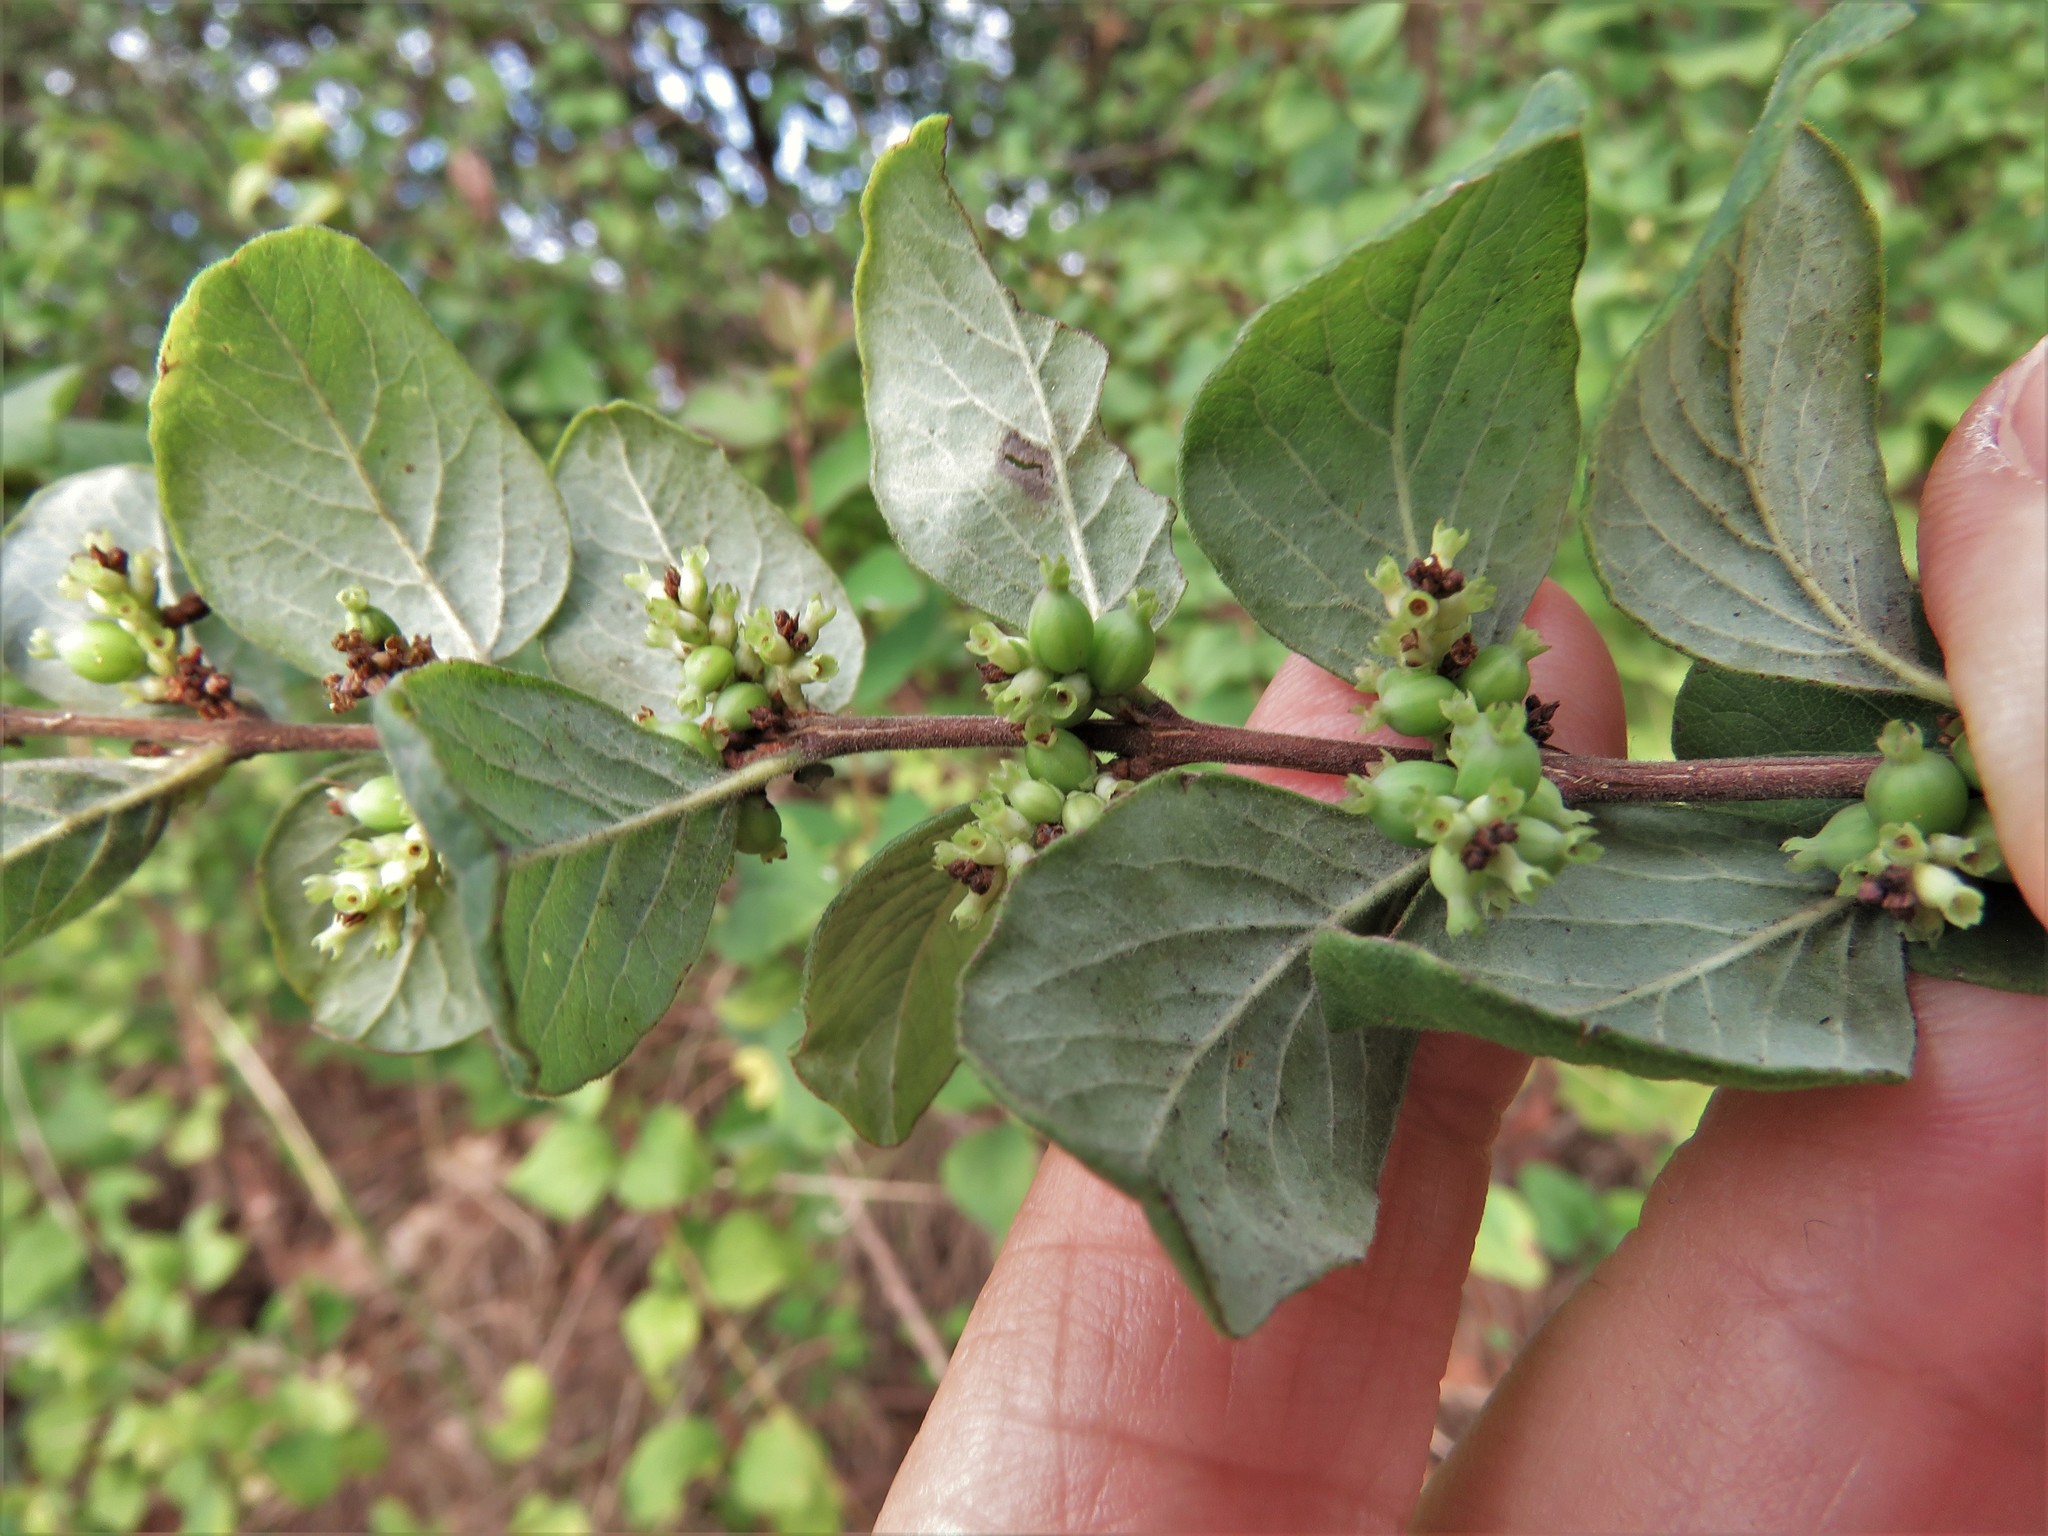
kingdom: Plantae
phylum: Tracheophyta
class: Magnoliopsida
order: Dipsacales
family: Caprifoliaceae
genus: Symphoricarpos
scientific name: Symphoricarpos orbiculatus
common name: Coralberry
